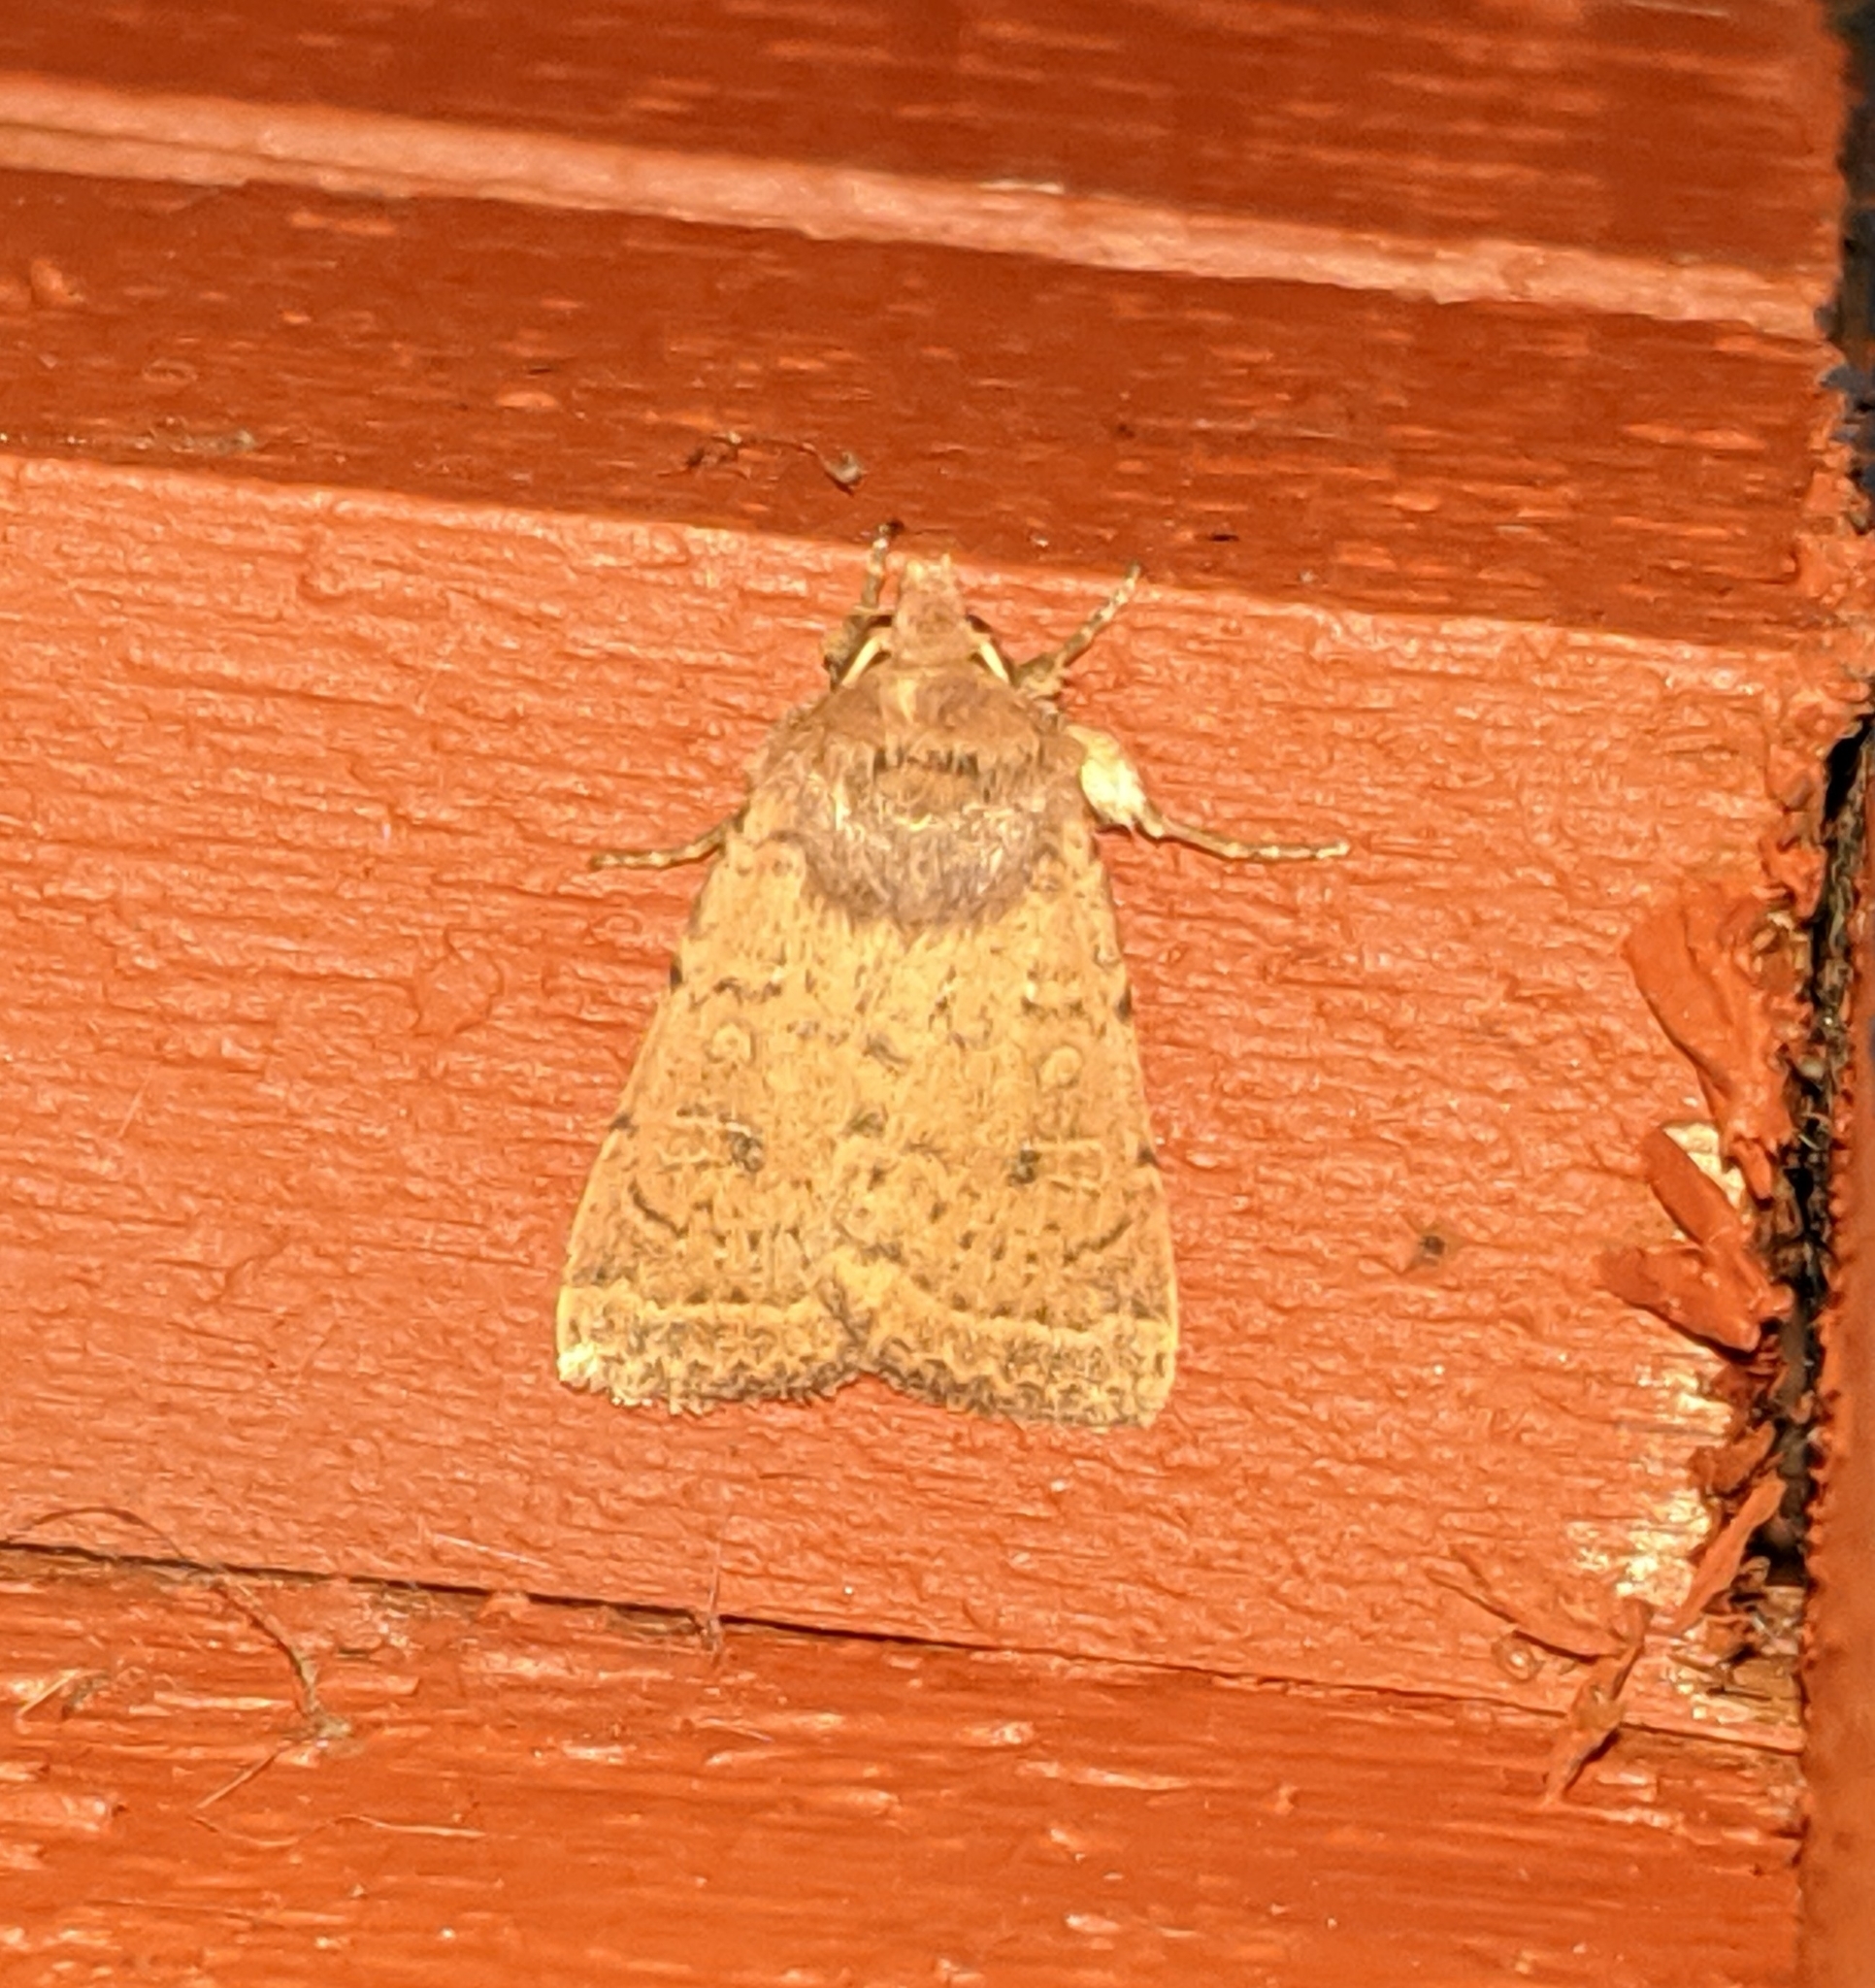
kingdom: Animalia
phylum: Arthropoda
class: Insecta
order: Lepidoptera
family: Noctuidae
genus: Homorthodes
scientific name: Homorthodes communis
